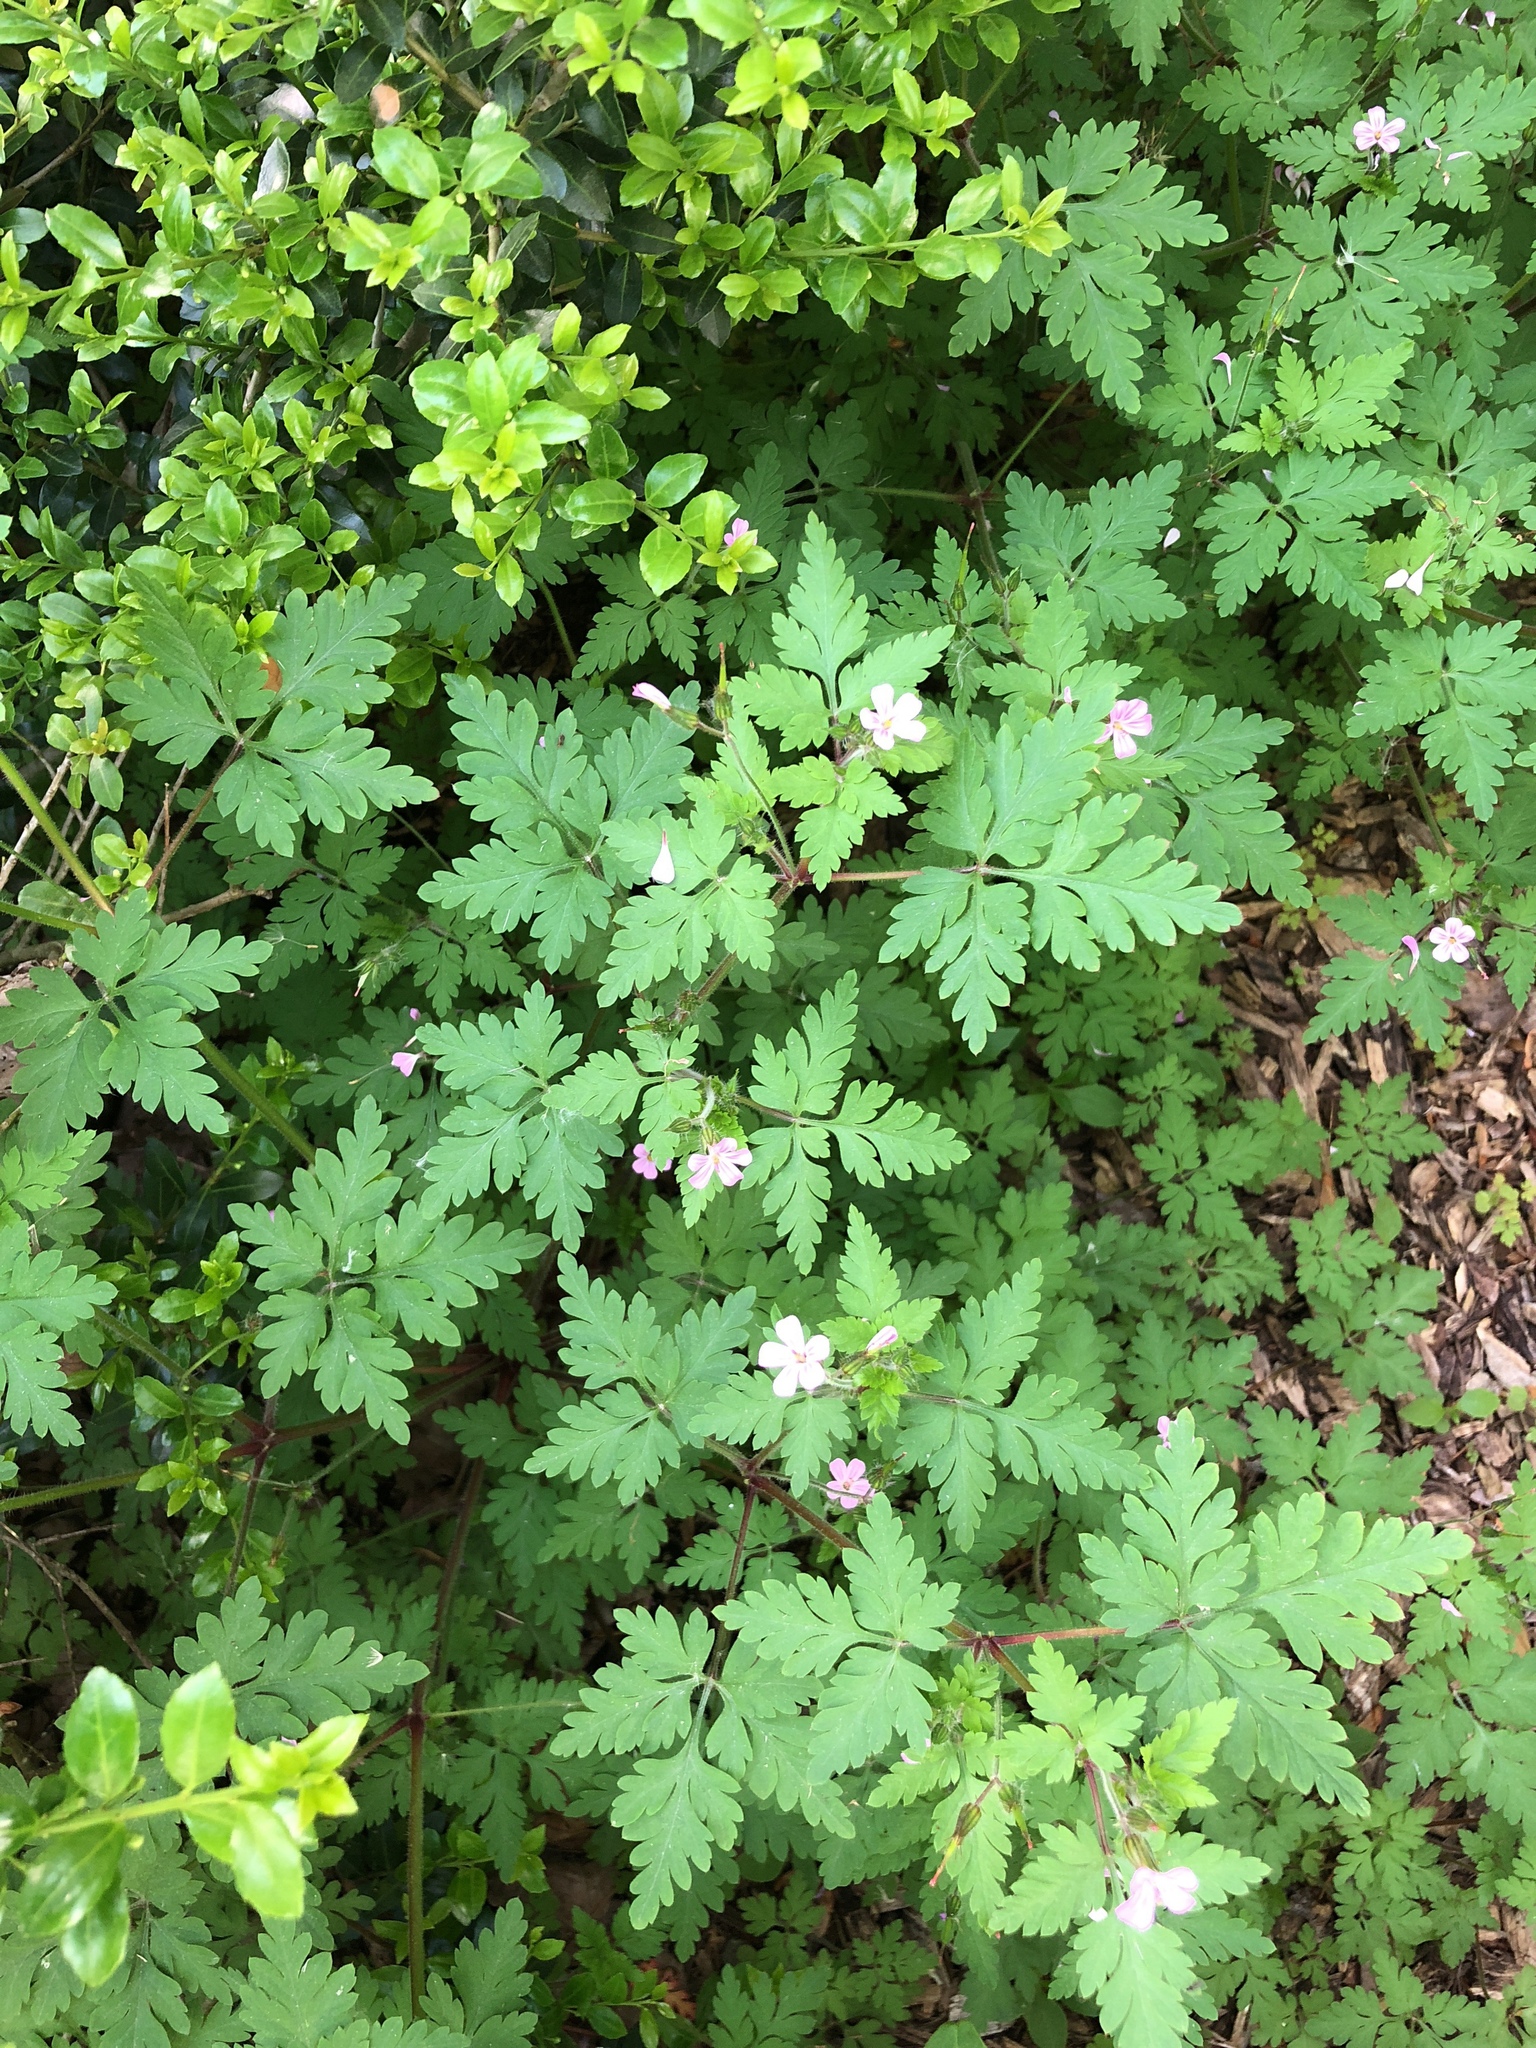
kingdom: Plantae
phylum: Tracheophyta
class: Magnoliopsida
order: Geraniales
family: Geraniaceae
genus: Geranium
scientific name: Geranium robertianum
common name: Herb-robert
